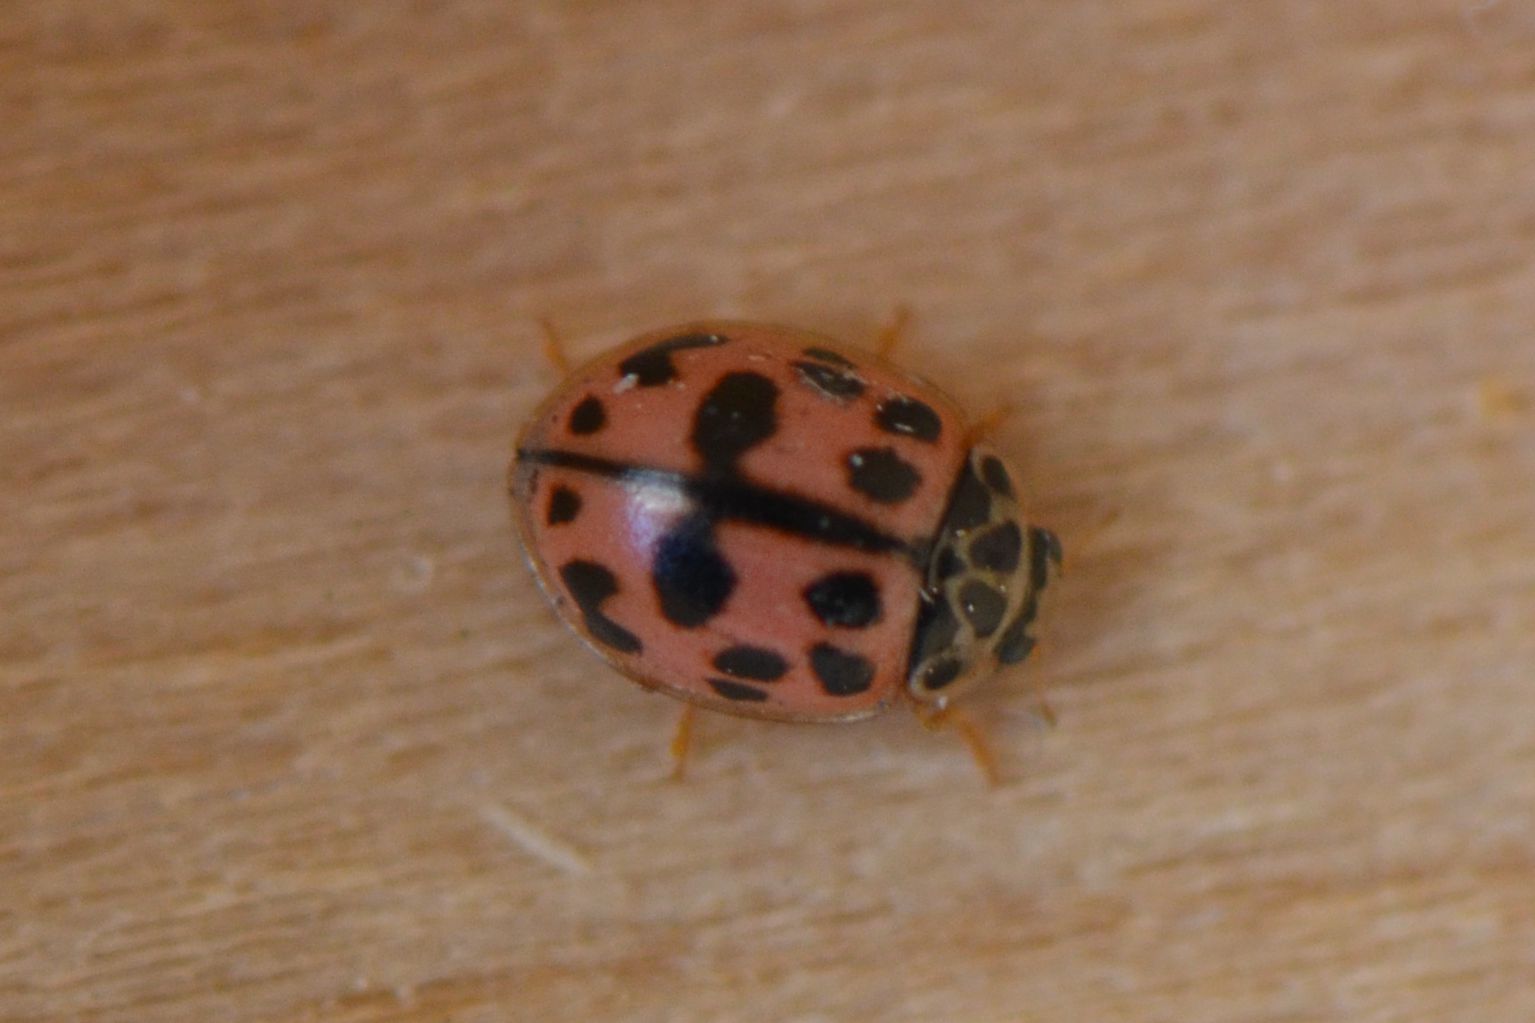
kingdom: Animalia
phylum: Arthropoda
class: Insecta
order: Coleoptera
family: Coccinellidae
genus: Oenopia
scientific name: Oenopia conglobata
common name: Ladybird beetle
